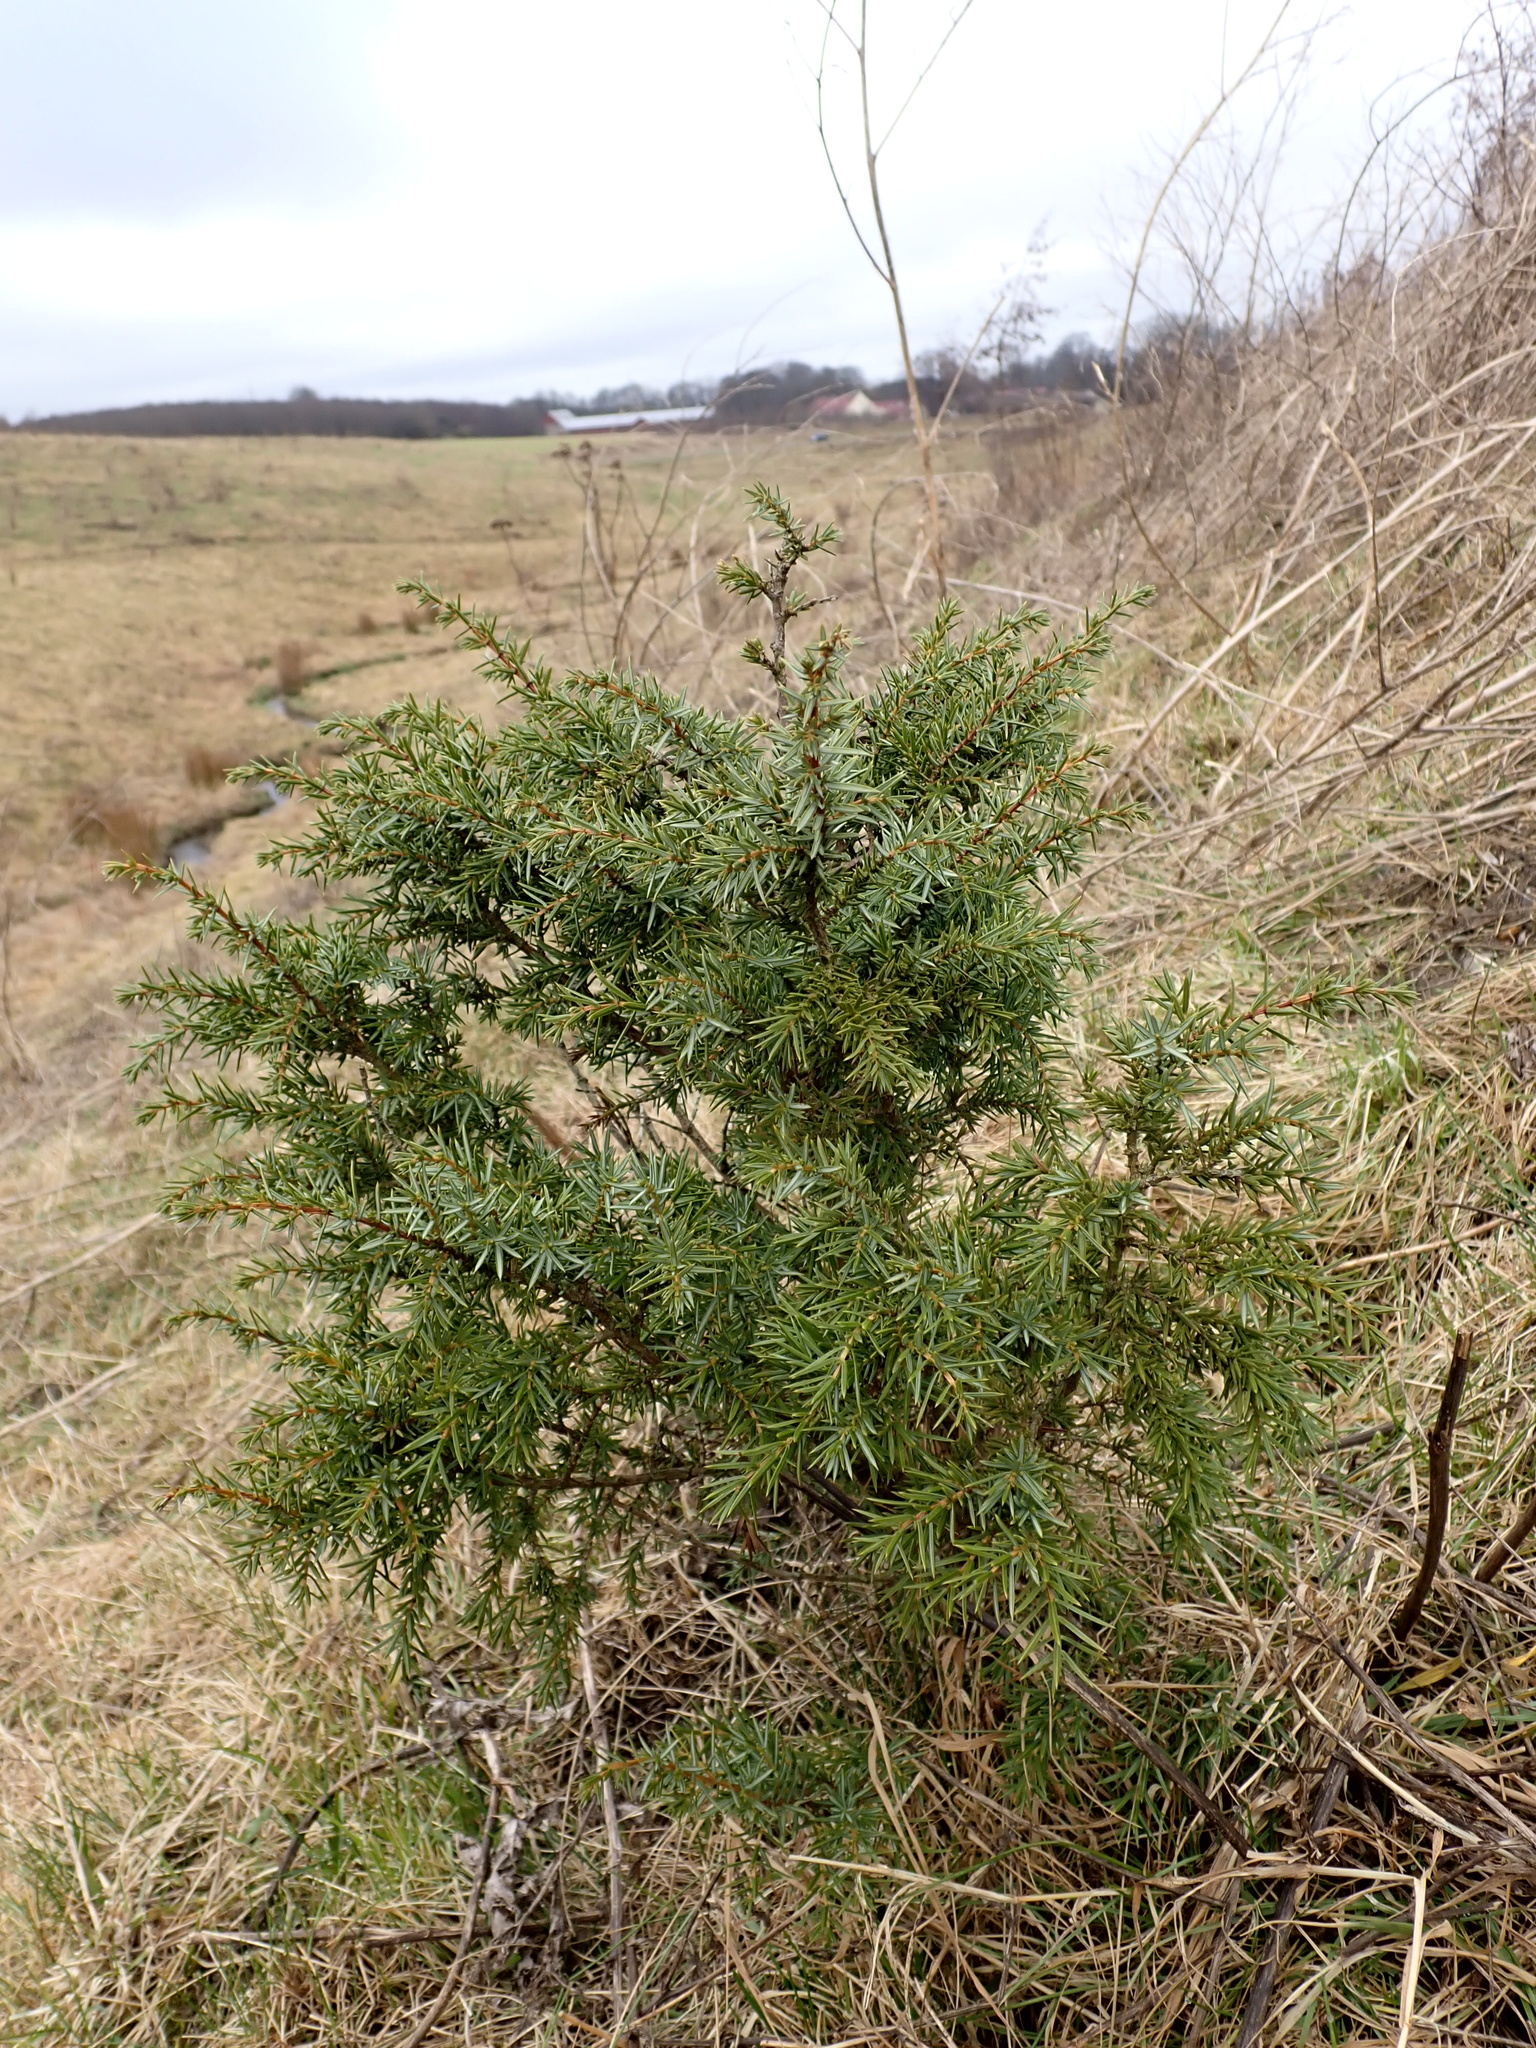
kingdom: Plantae
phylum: Tracheophyta
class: Pinopsida
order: Pinales
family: Cupressaceae
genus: Juniperus
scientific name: Juniperus communis
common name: Common juniper
